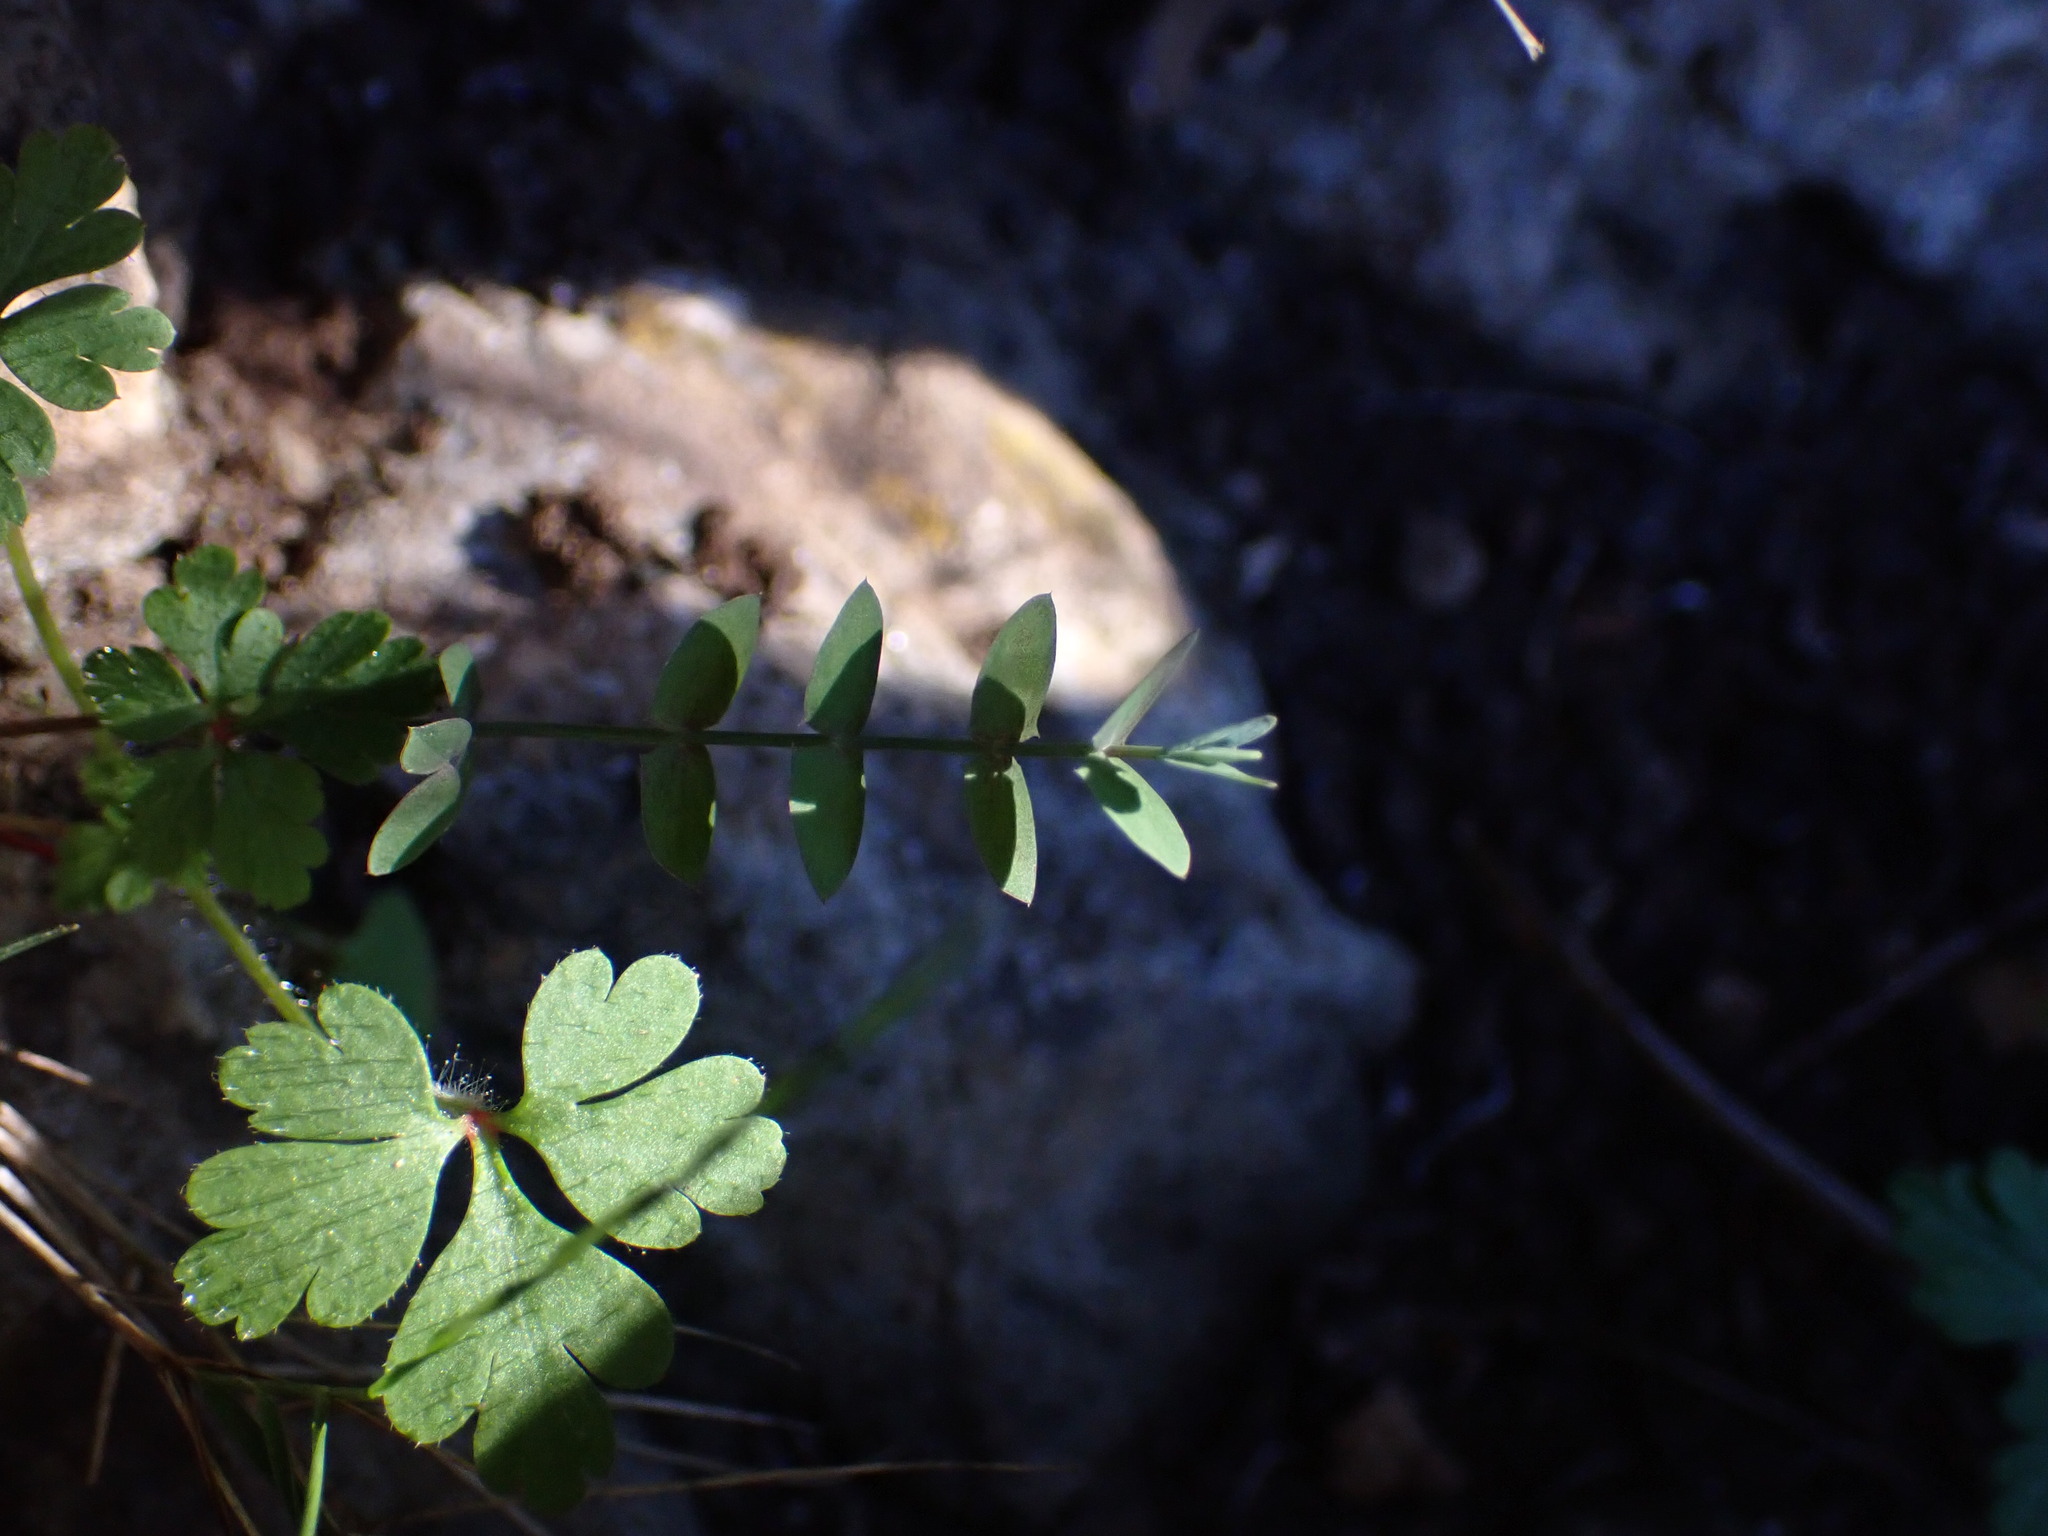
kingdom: Plantae
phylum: Tracheophyta
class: Magnoliopsida
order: Fabales
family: Fabaceae
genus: Lathyrus
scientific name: Lathyrus aphaca
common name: Yellow vetchling
